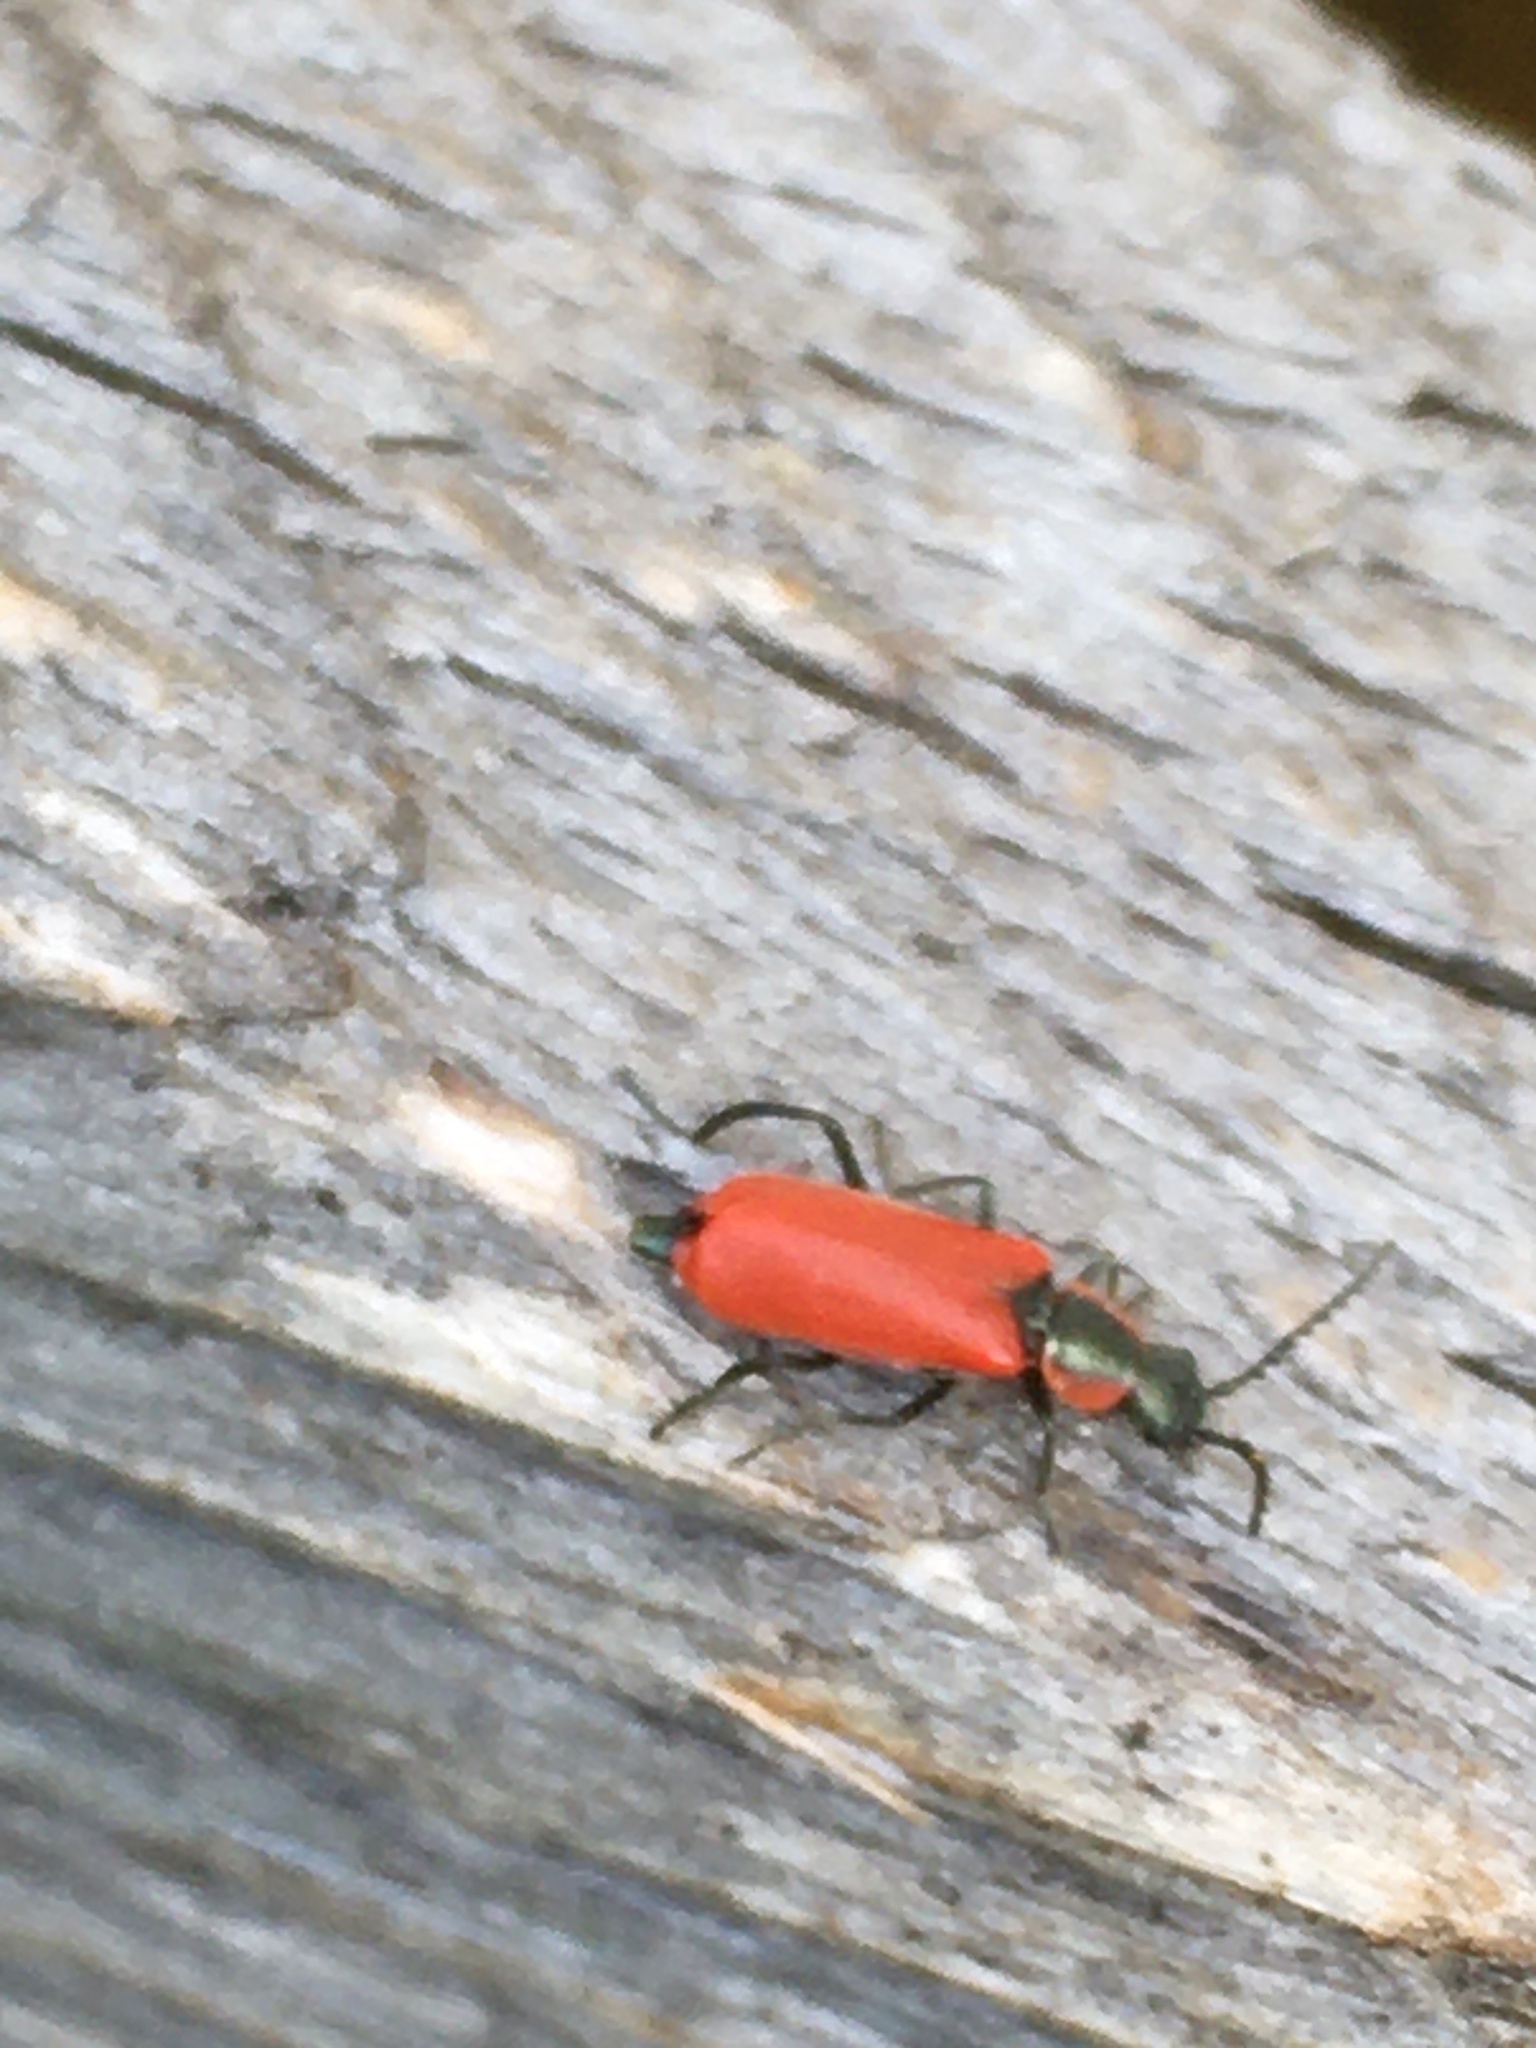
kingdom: Animalia
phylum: Arthropoda
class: Insecta
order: Coleoptera
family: Melyridae
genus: Anthocomus
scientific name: Anthocomus rufus
